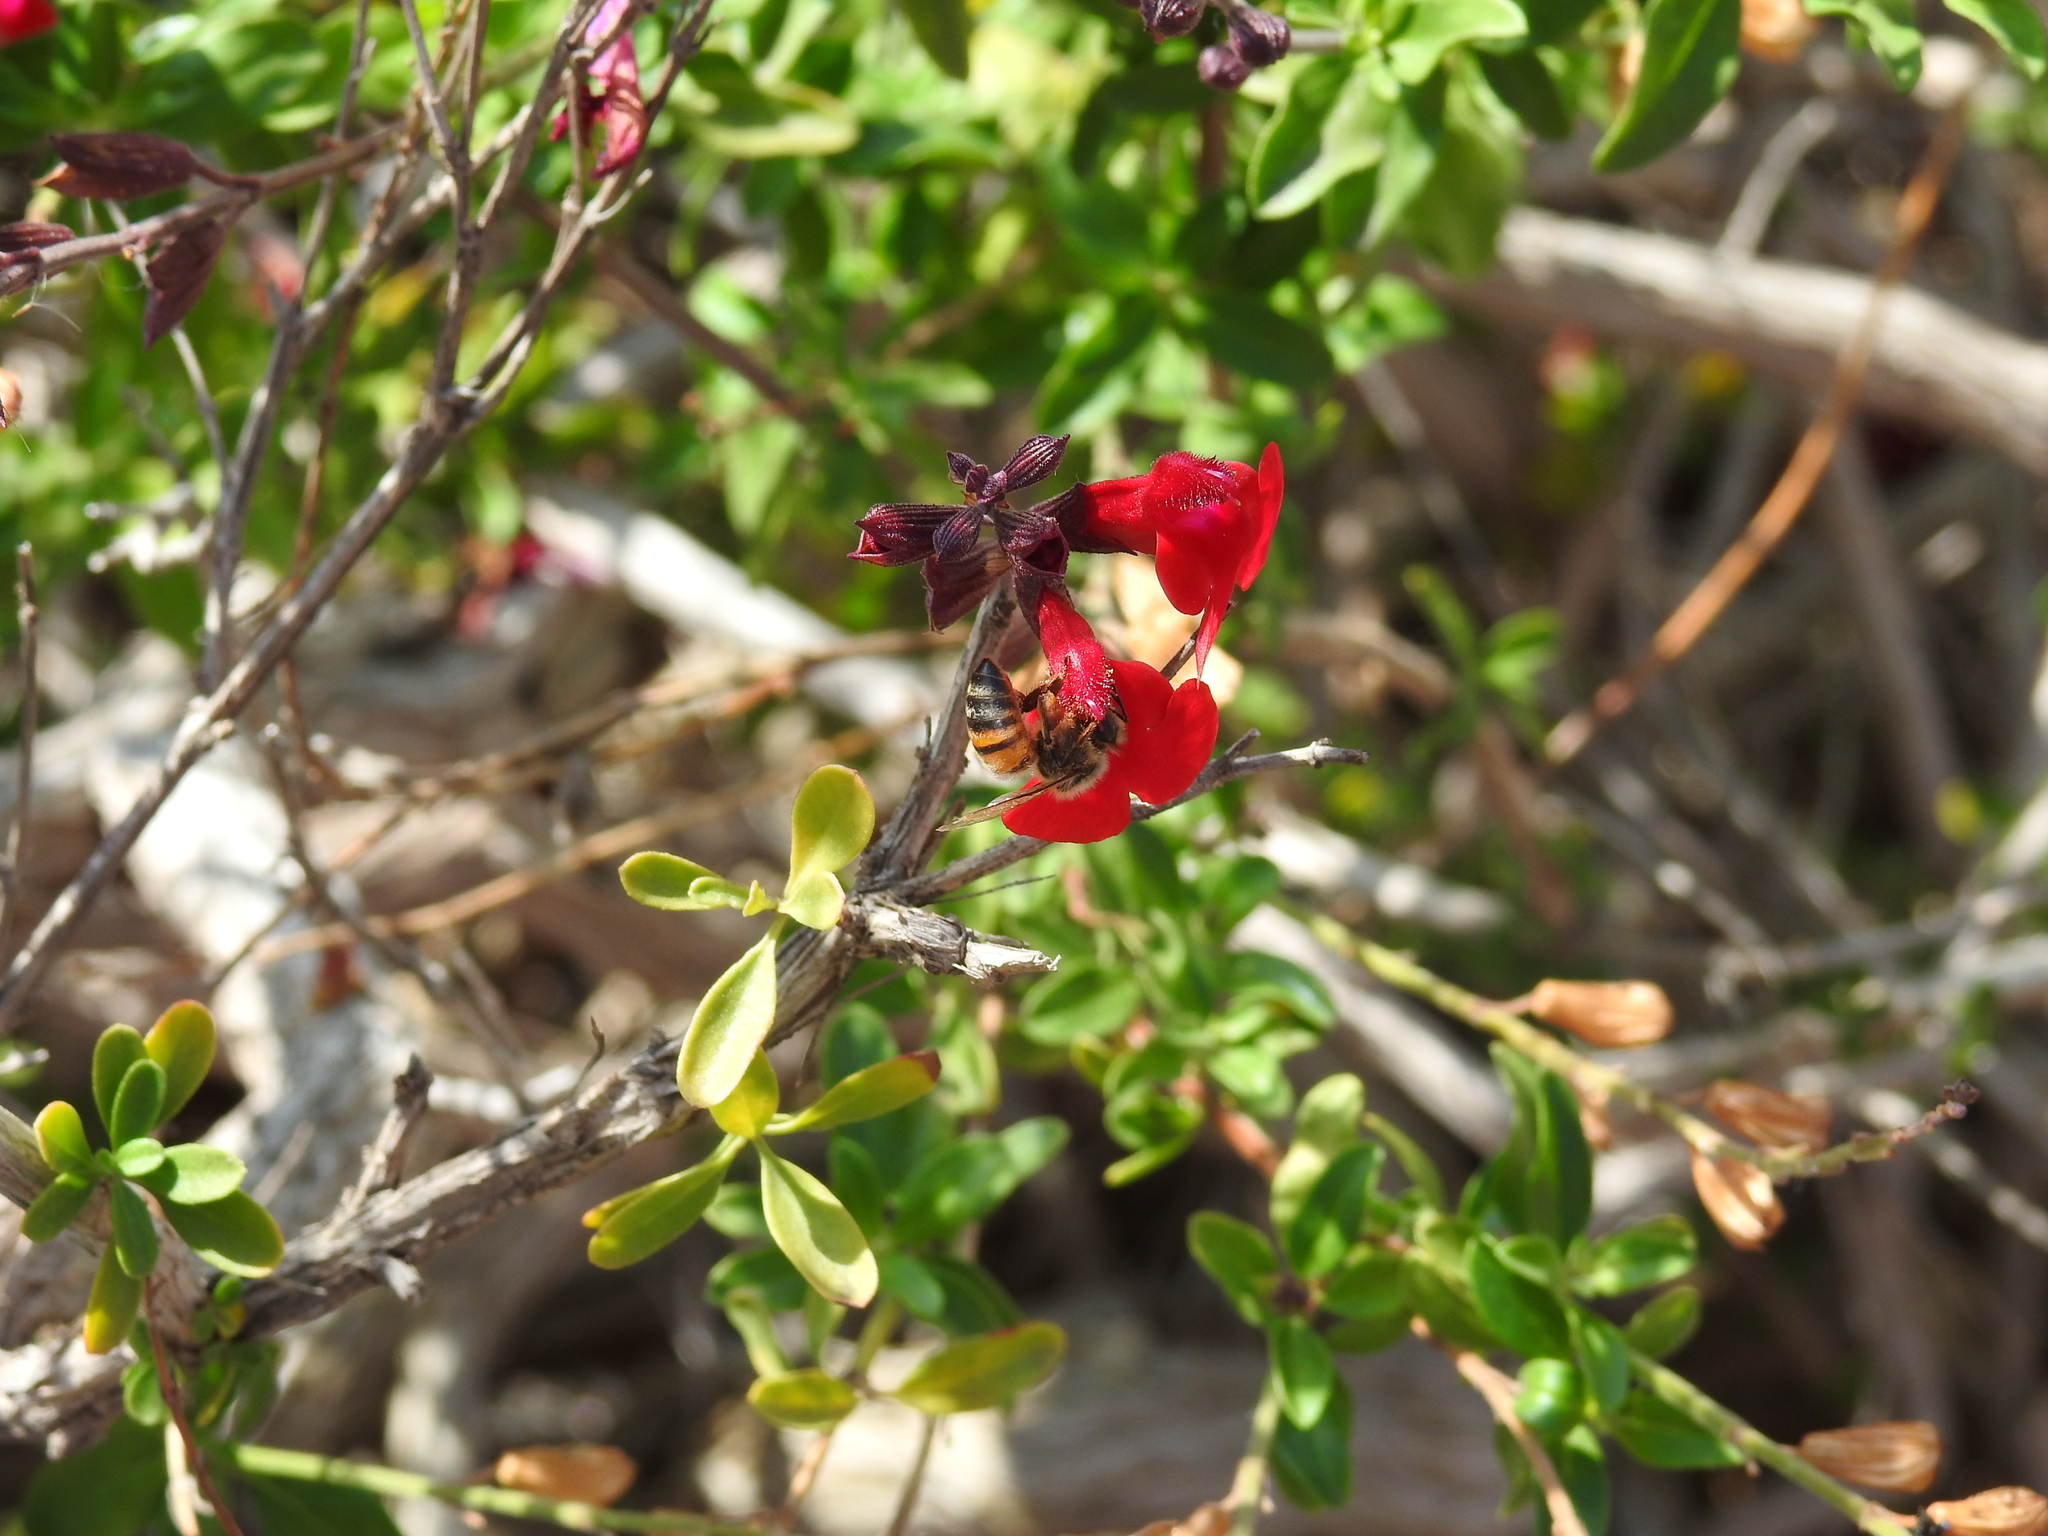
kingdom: Animalia
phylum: Arthropoda
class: Insecta
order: Hymenoptera
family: Apidae
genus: Apis
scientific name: Apis mellifera
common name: Honey bee
